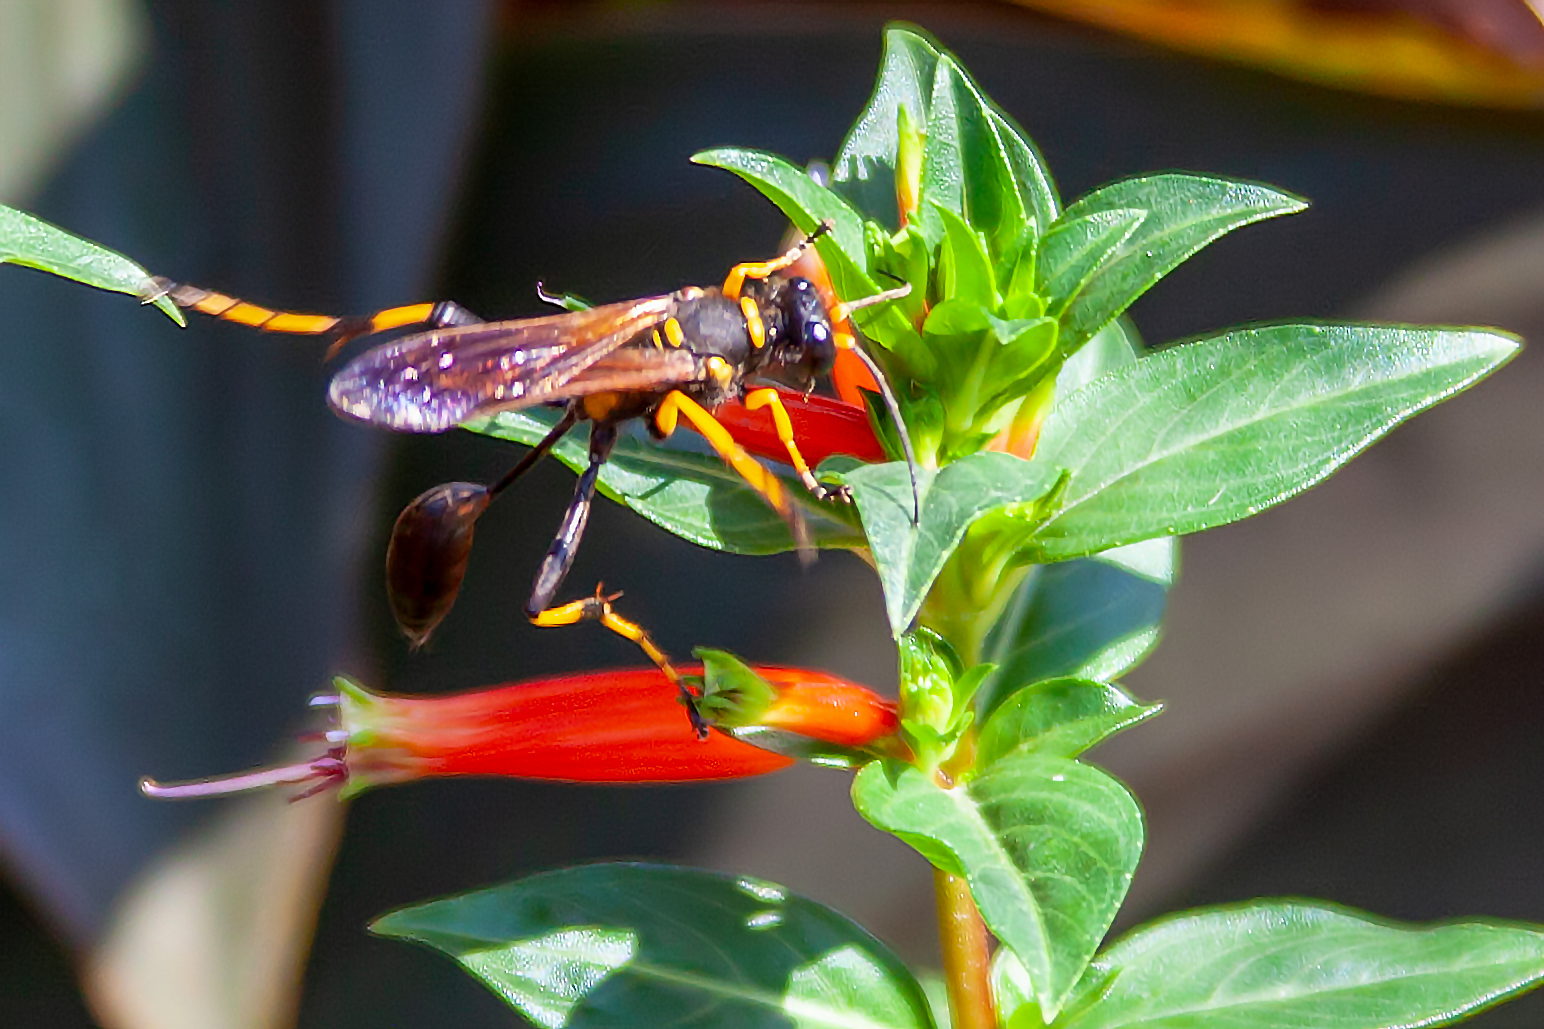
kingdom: Animalia
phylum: Arthropoda
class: Insecta
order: Hymenoptera
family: Sphecidae
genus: Sceliphron
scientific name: Sceliphron caementarium
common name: Mud dauber
